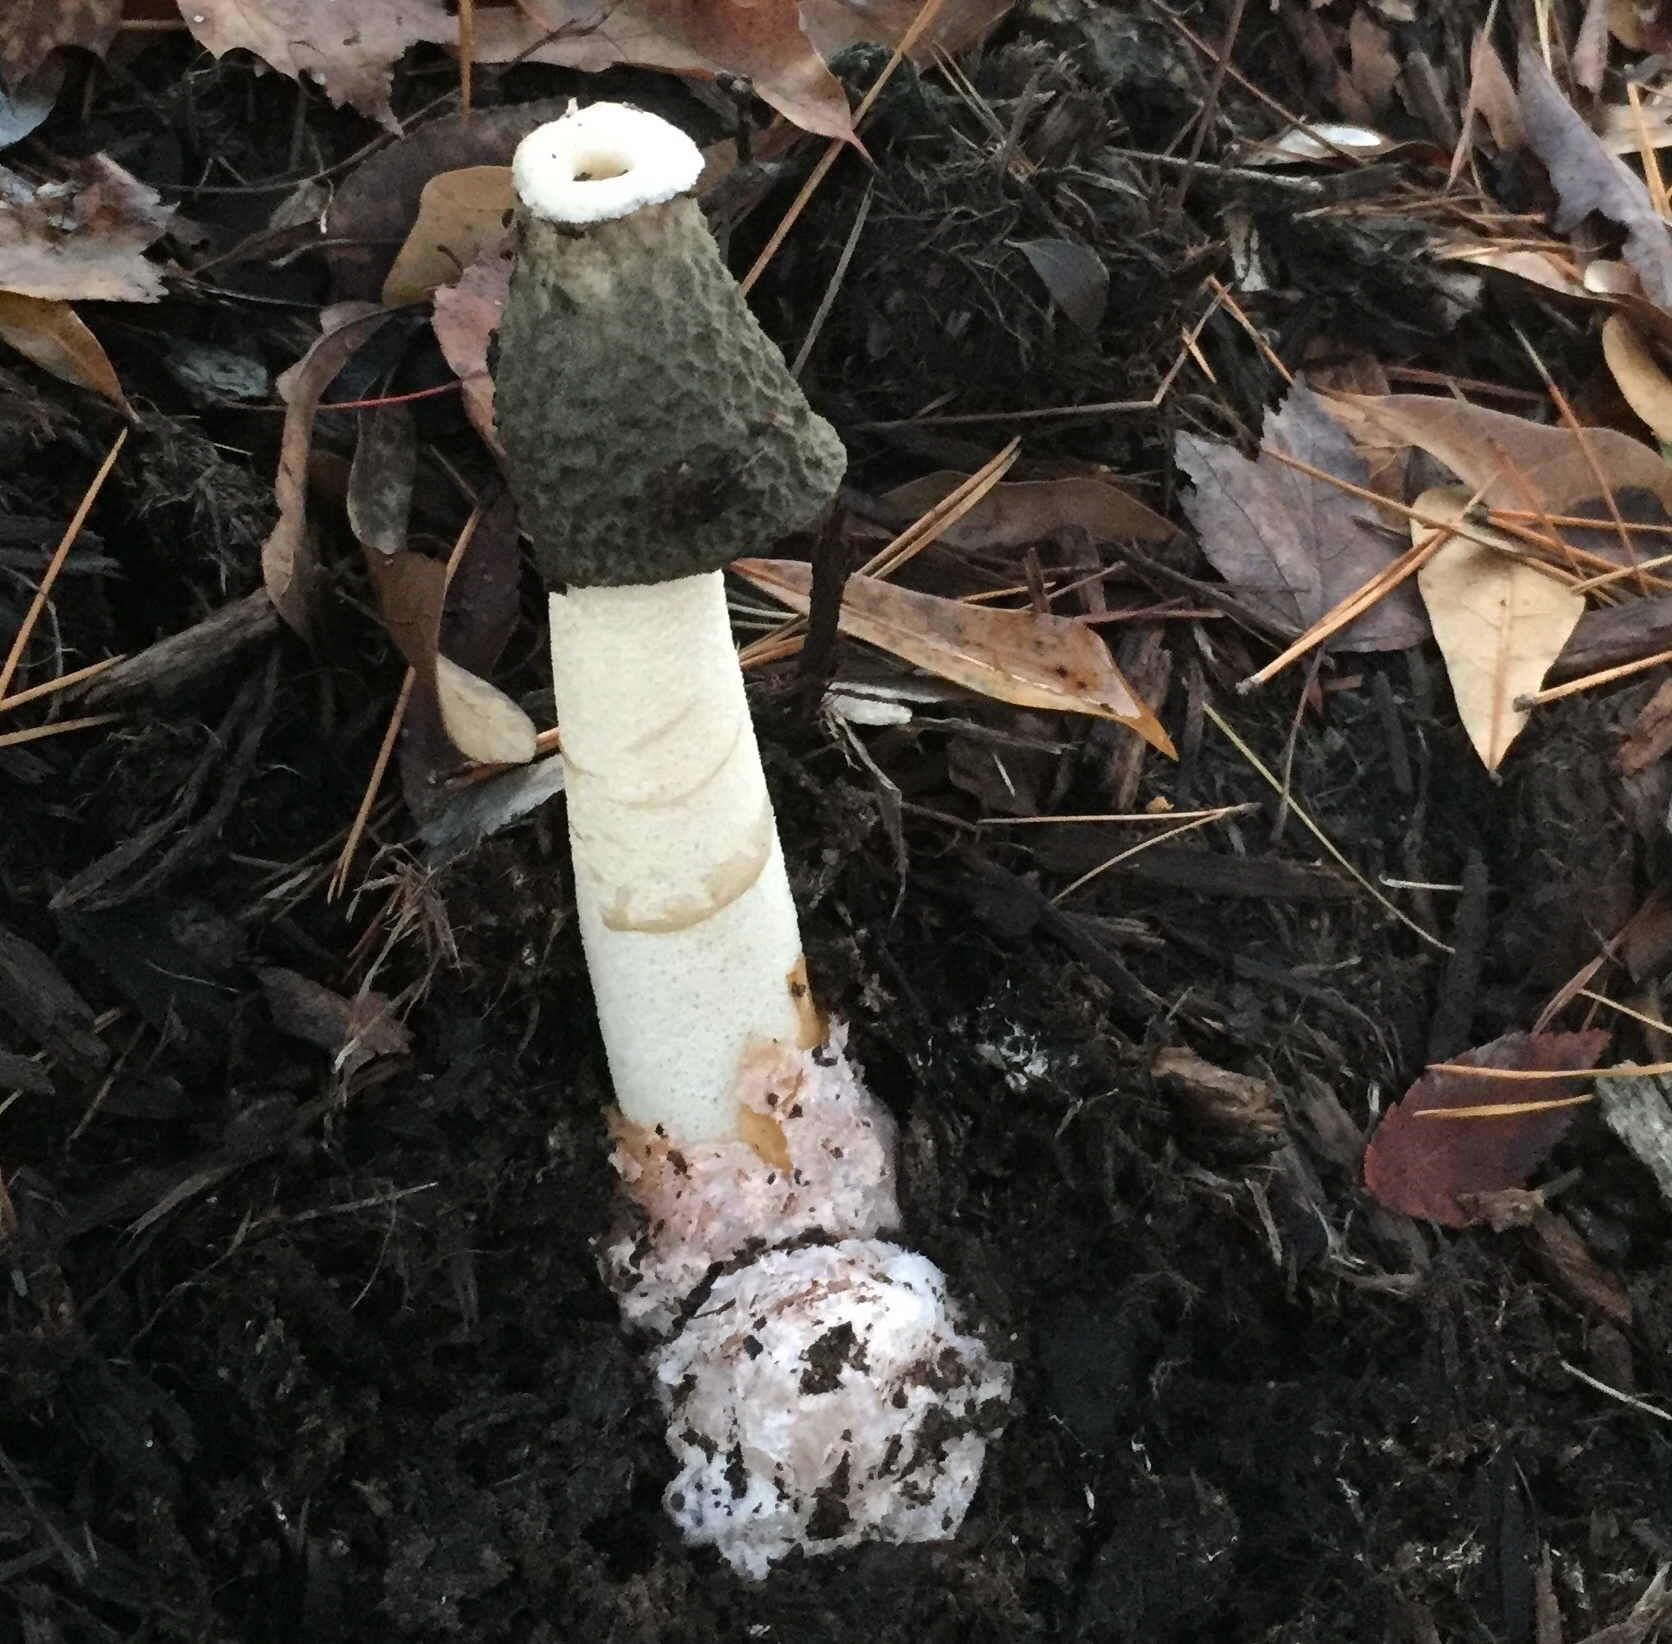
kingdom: Fungi
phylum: Basidiomycota
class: Agaricomycetes
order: Phallales
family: Phallaceae
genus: Phallus
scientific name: Phallus ravenelii
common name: Ravenel's stinkhorn
